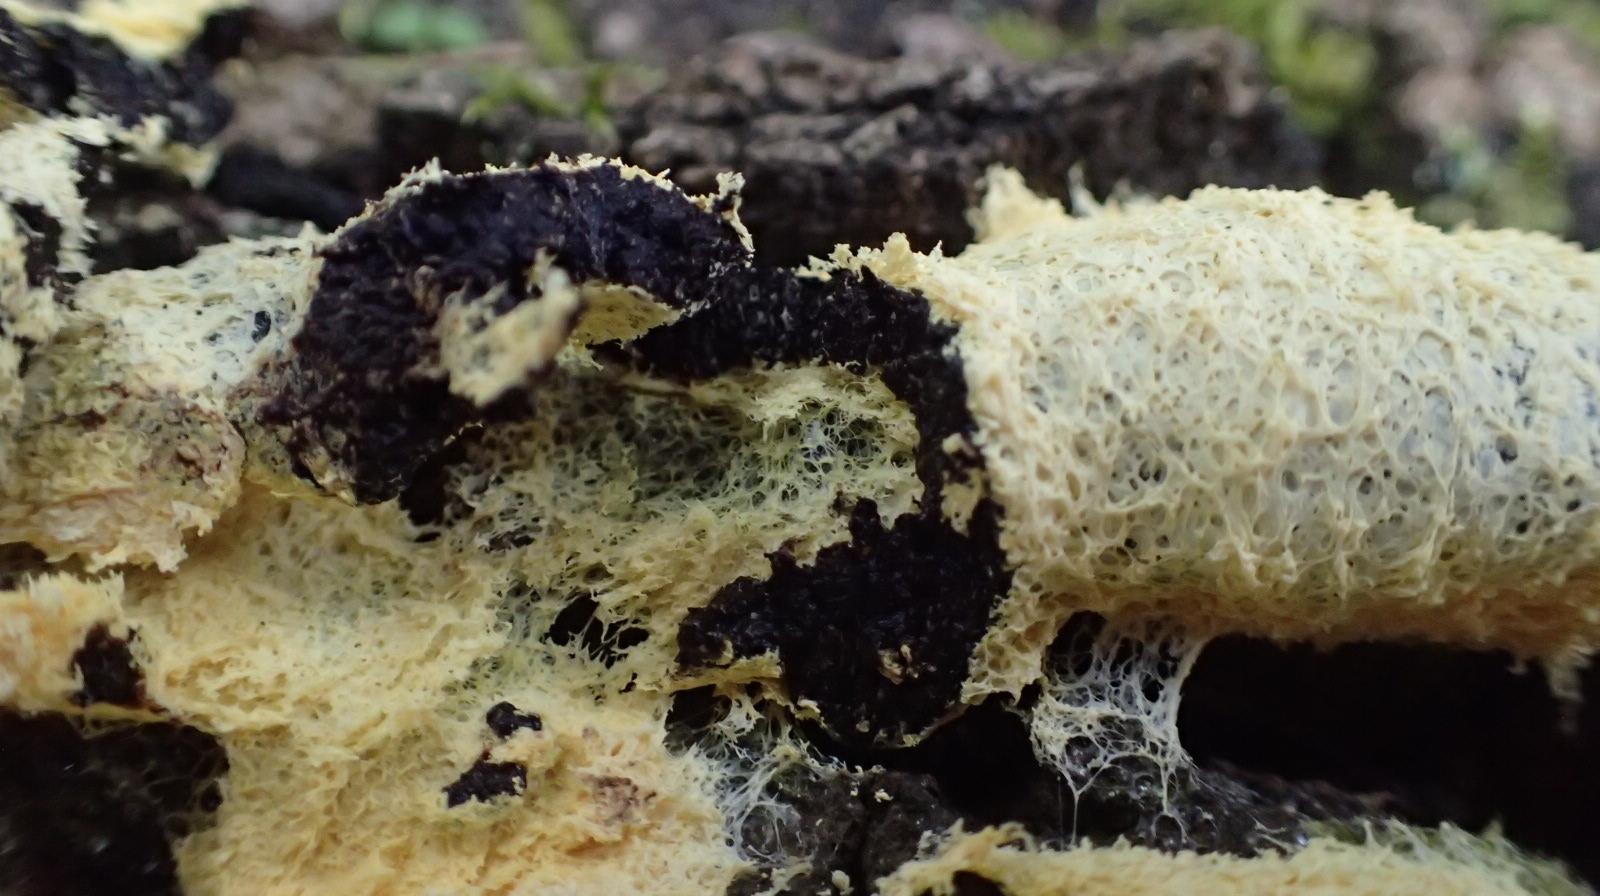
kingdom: Protozoa
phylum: Mycetozoa
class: Myxomycetes
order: Physarales
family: Physaraceae
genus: Fuligo
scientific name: Fuligo septica
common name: Dog vomit slime mold
